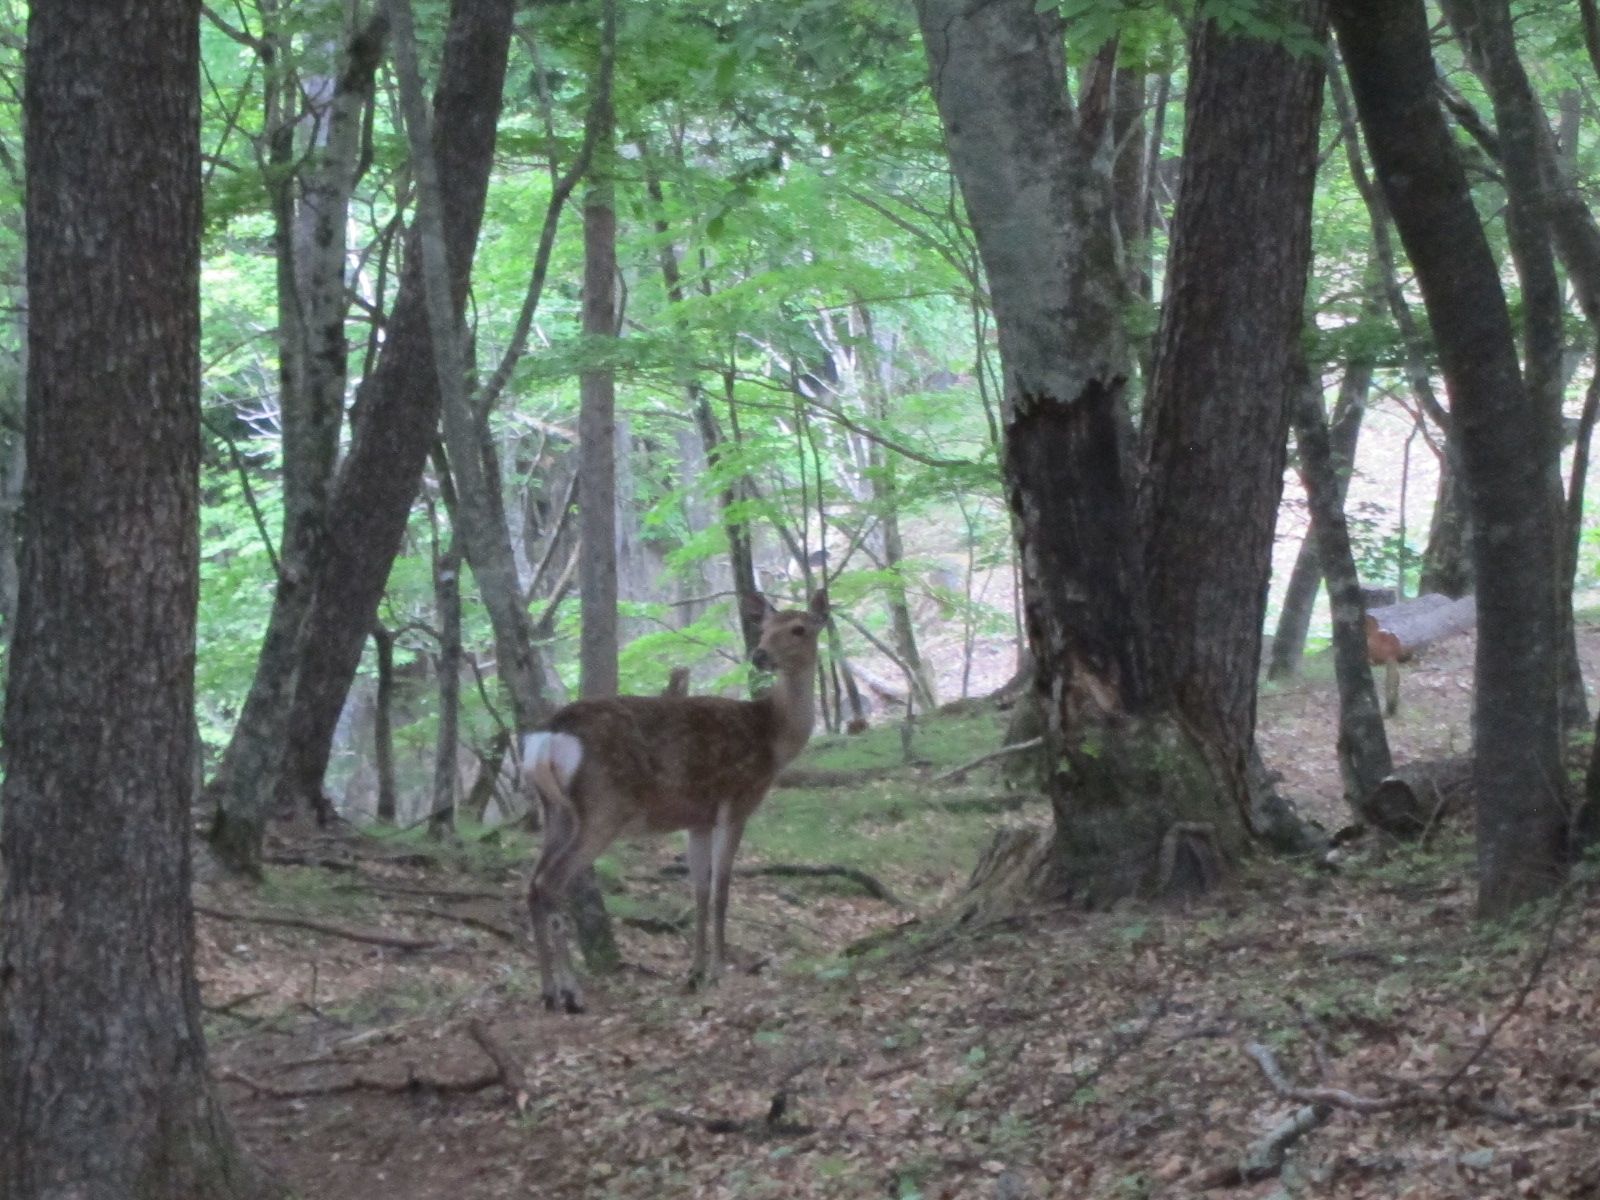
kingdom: Animalia
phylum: Chordata
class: Mammalia
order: Artiodactyla
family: Cervidae
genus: Cervus
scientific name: Cervus nippon
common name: Sika deer
